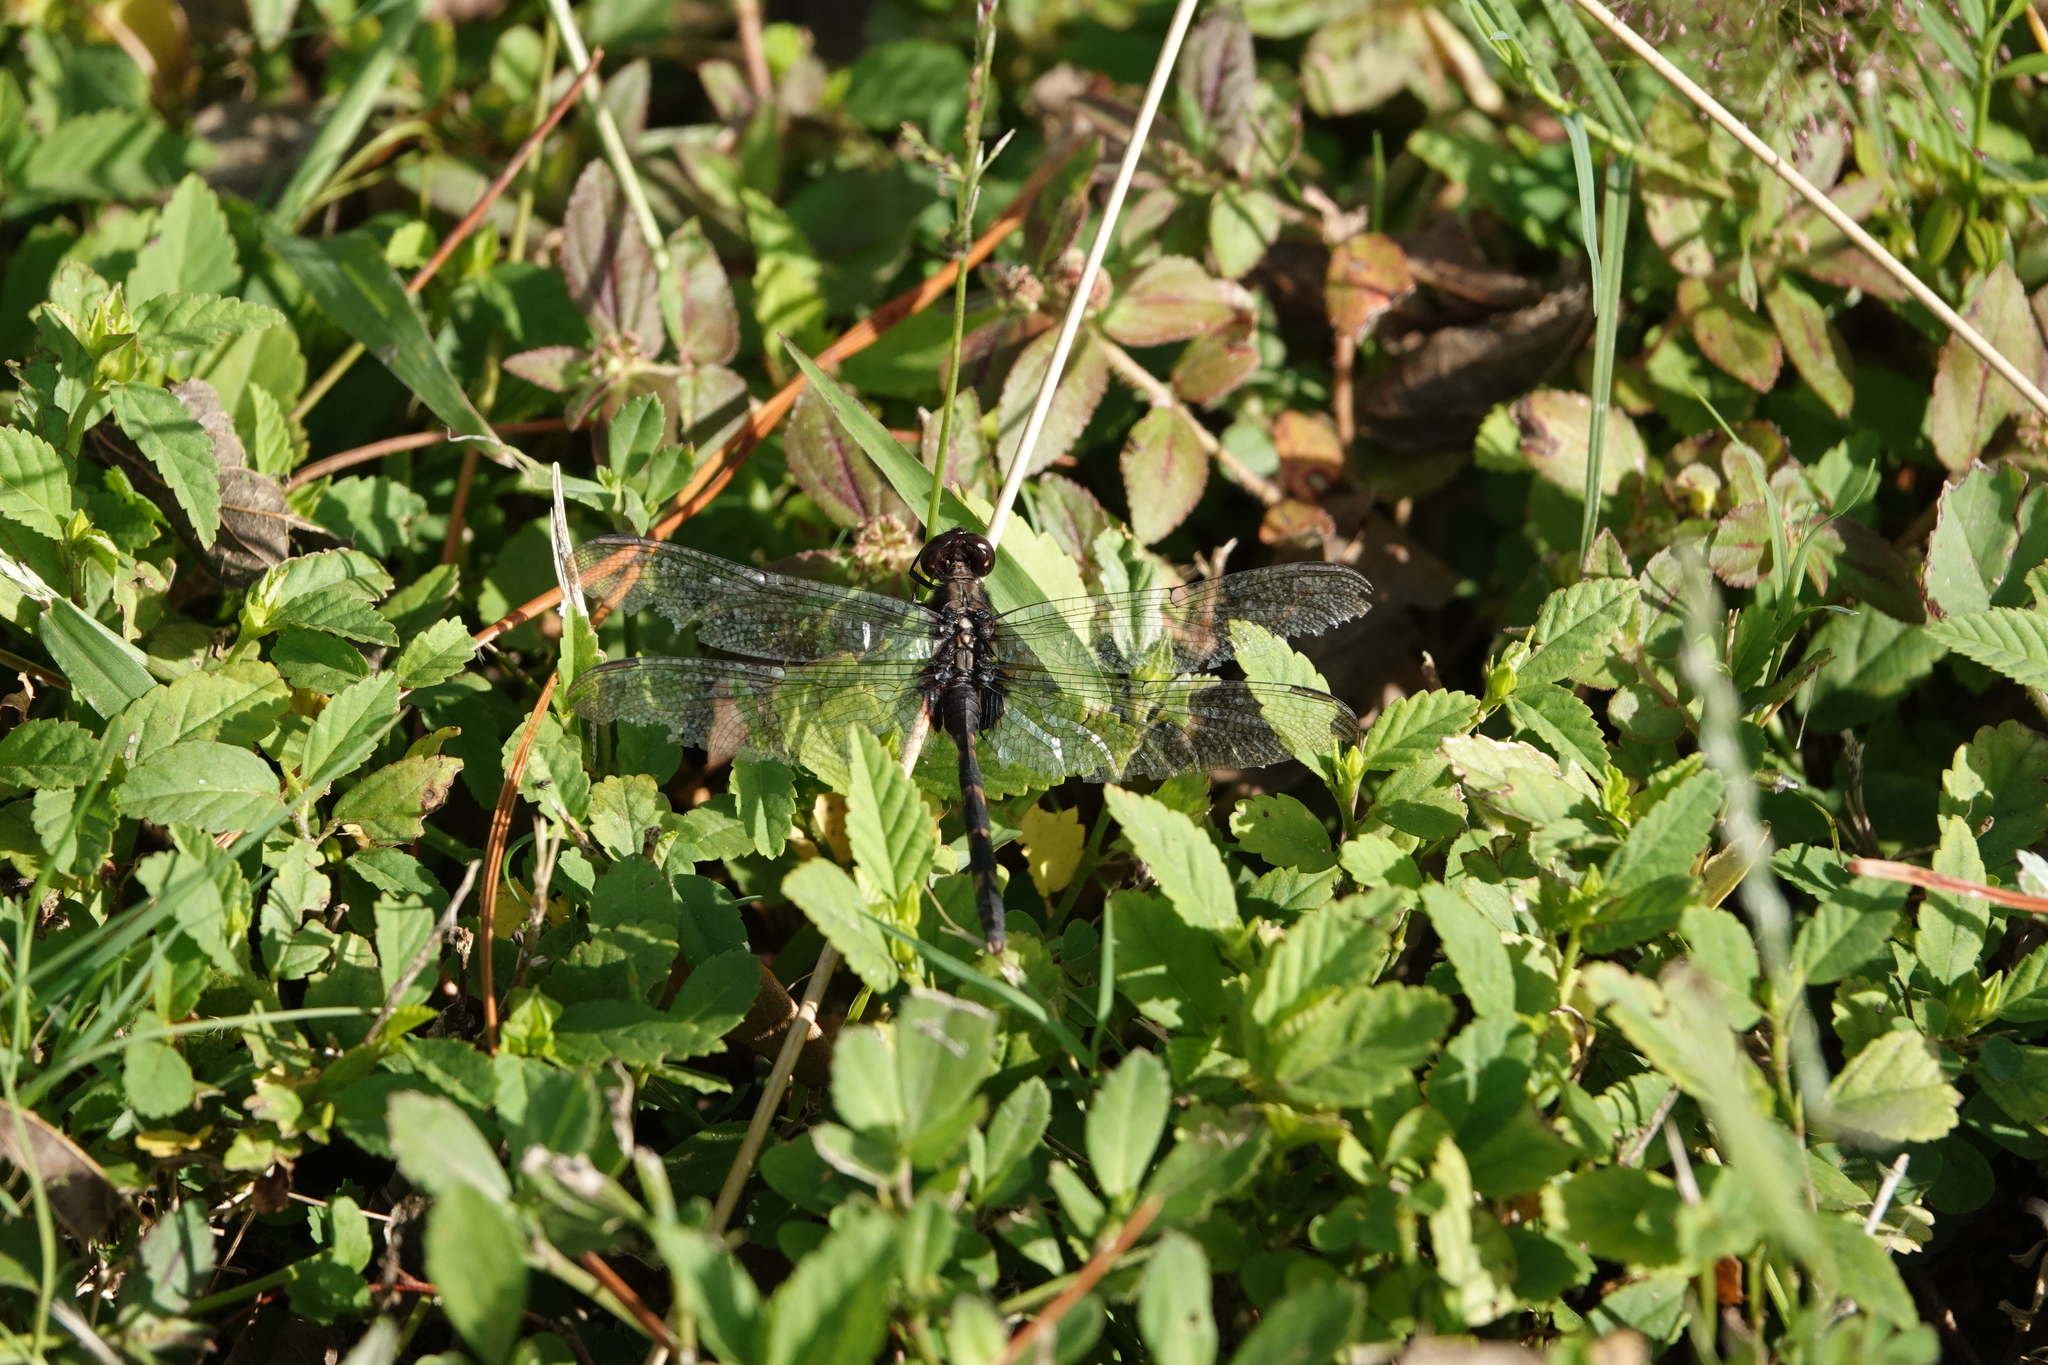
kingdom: Animalia
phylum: Arthropoda
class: Insecta
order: Odonata
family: Libellulidae
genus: Erythemis
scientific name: Erythemis plebeja
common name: Pin-tailed pondhawk
